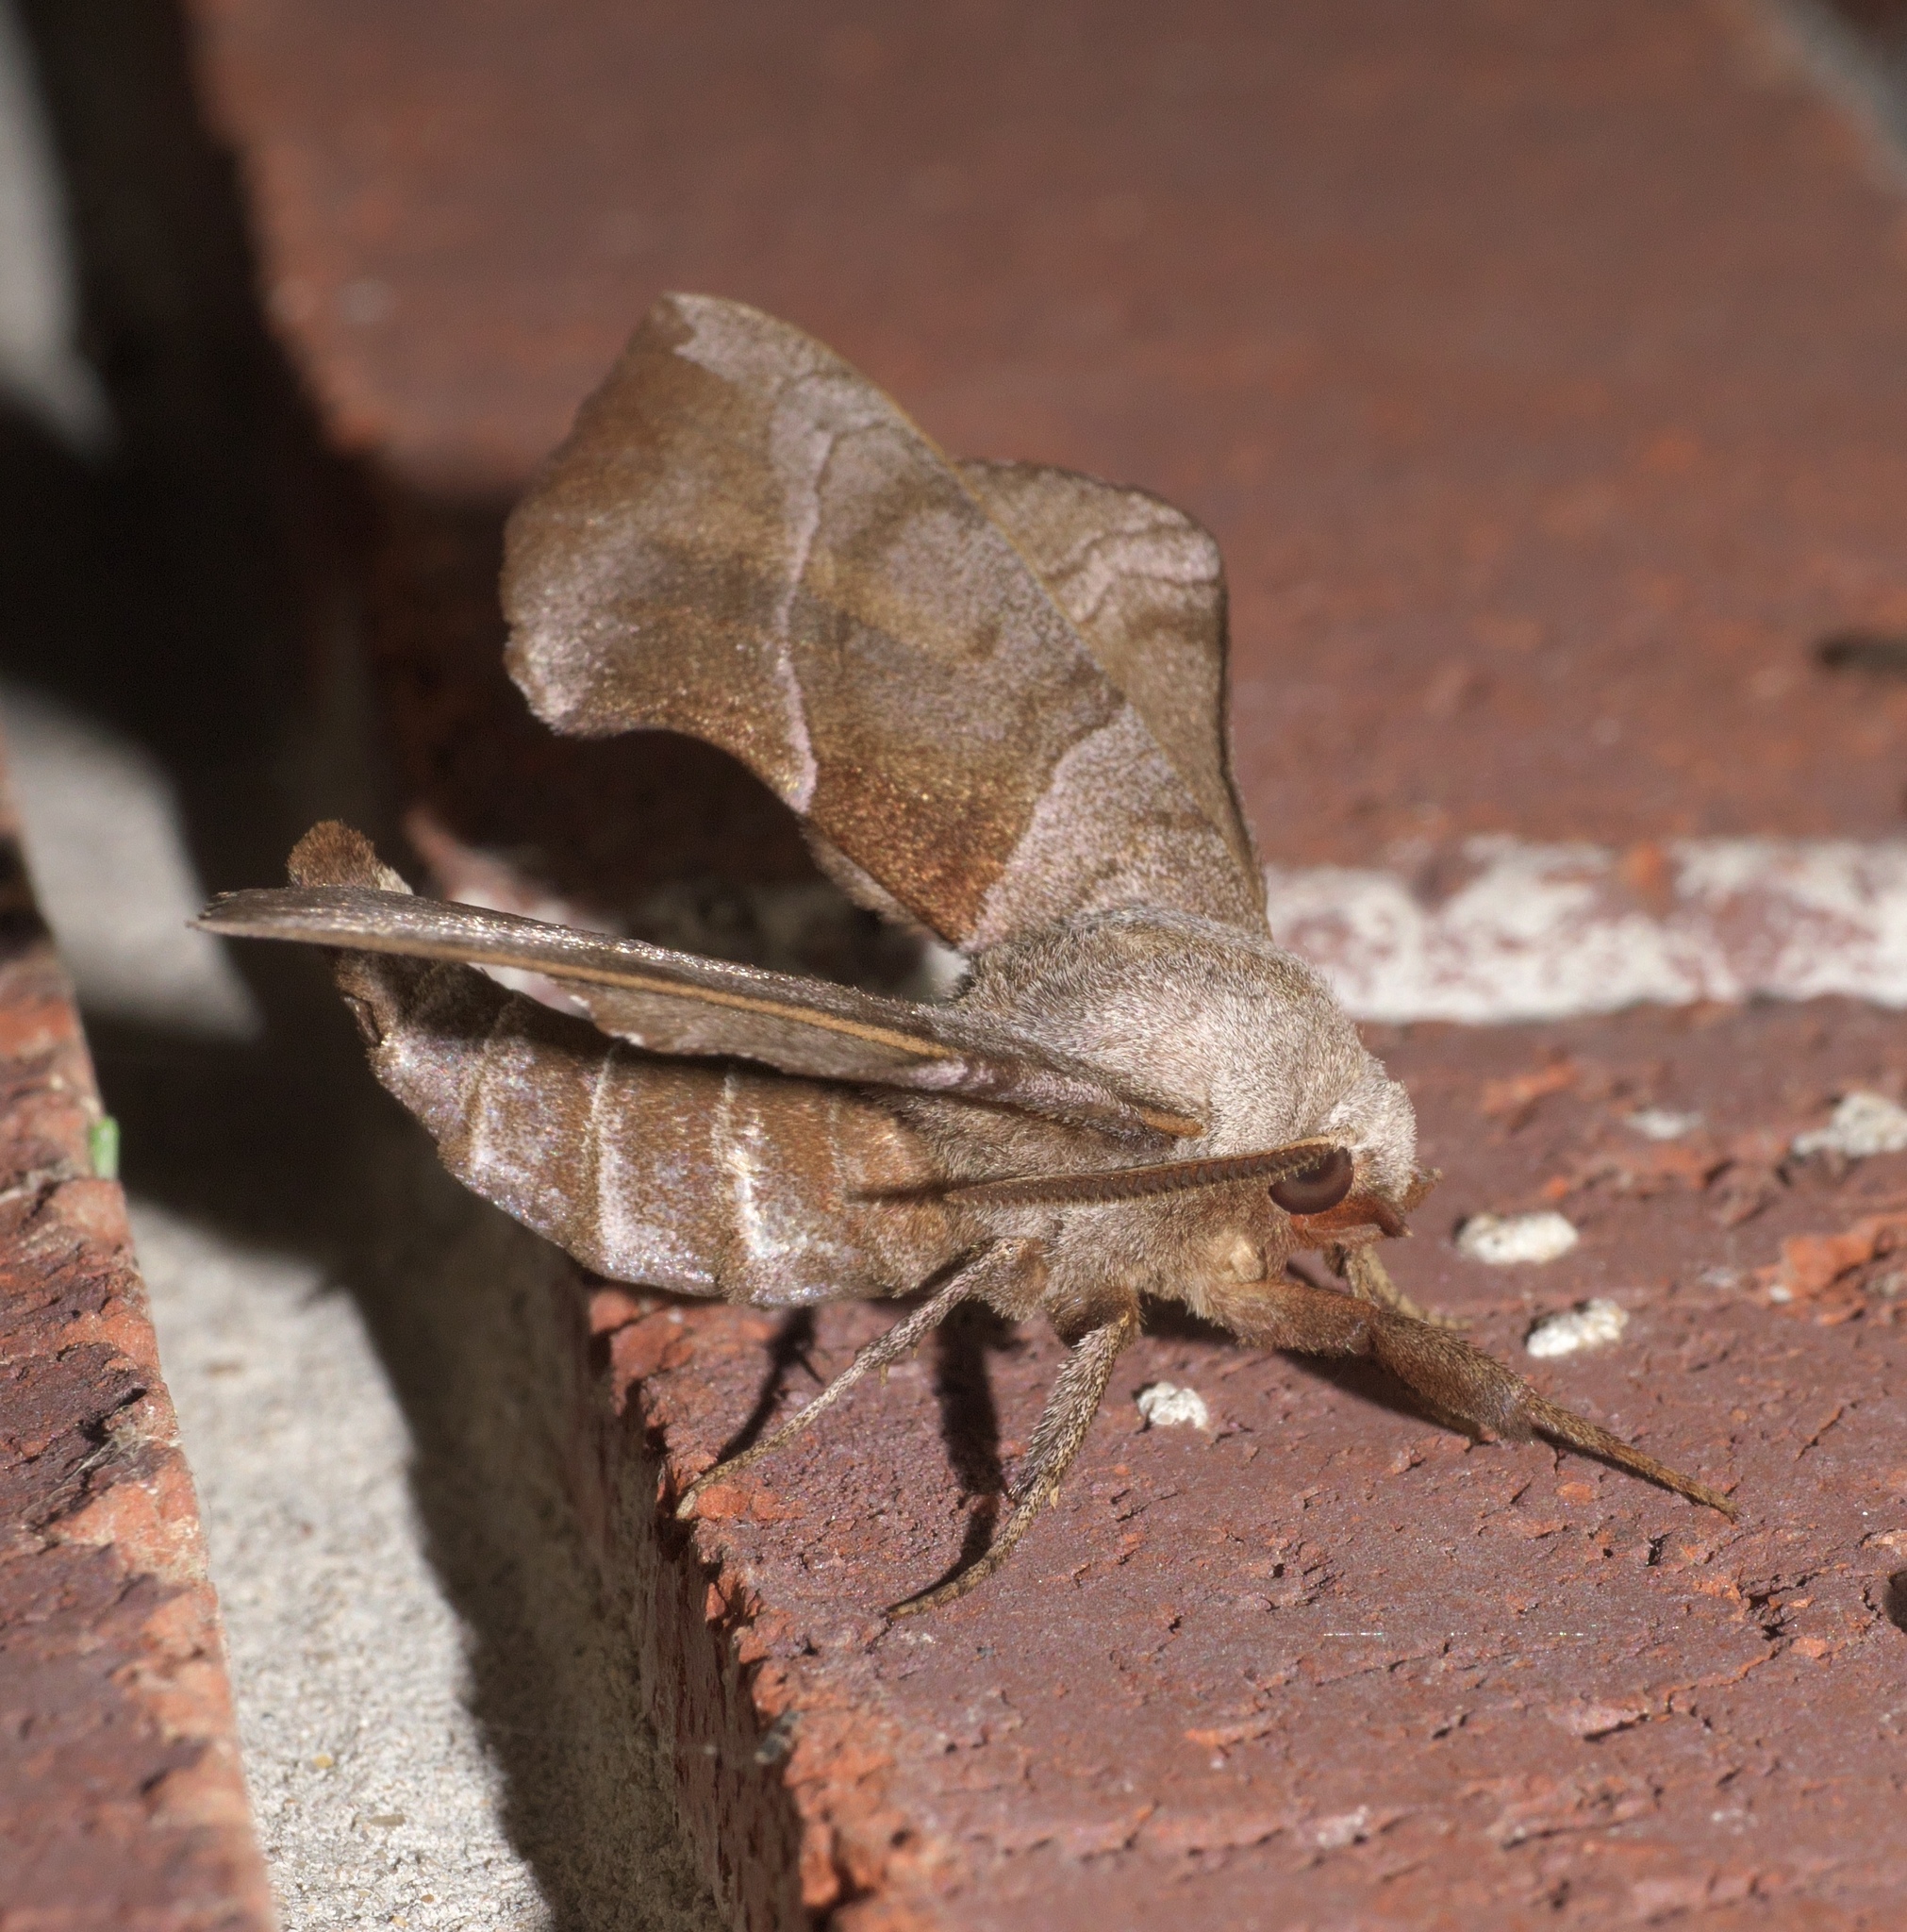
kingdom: Animalia
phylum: Arthropoda
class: Insecta
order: Lepidoptera
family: Sphingidae
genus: Amorpha
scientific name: Amorpha juglandis
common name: Walnut sphinx
